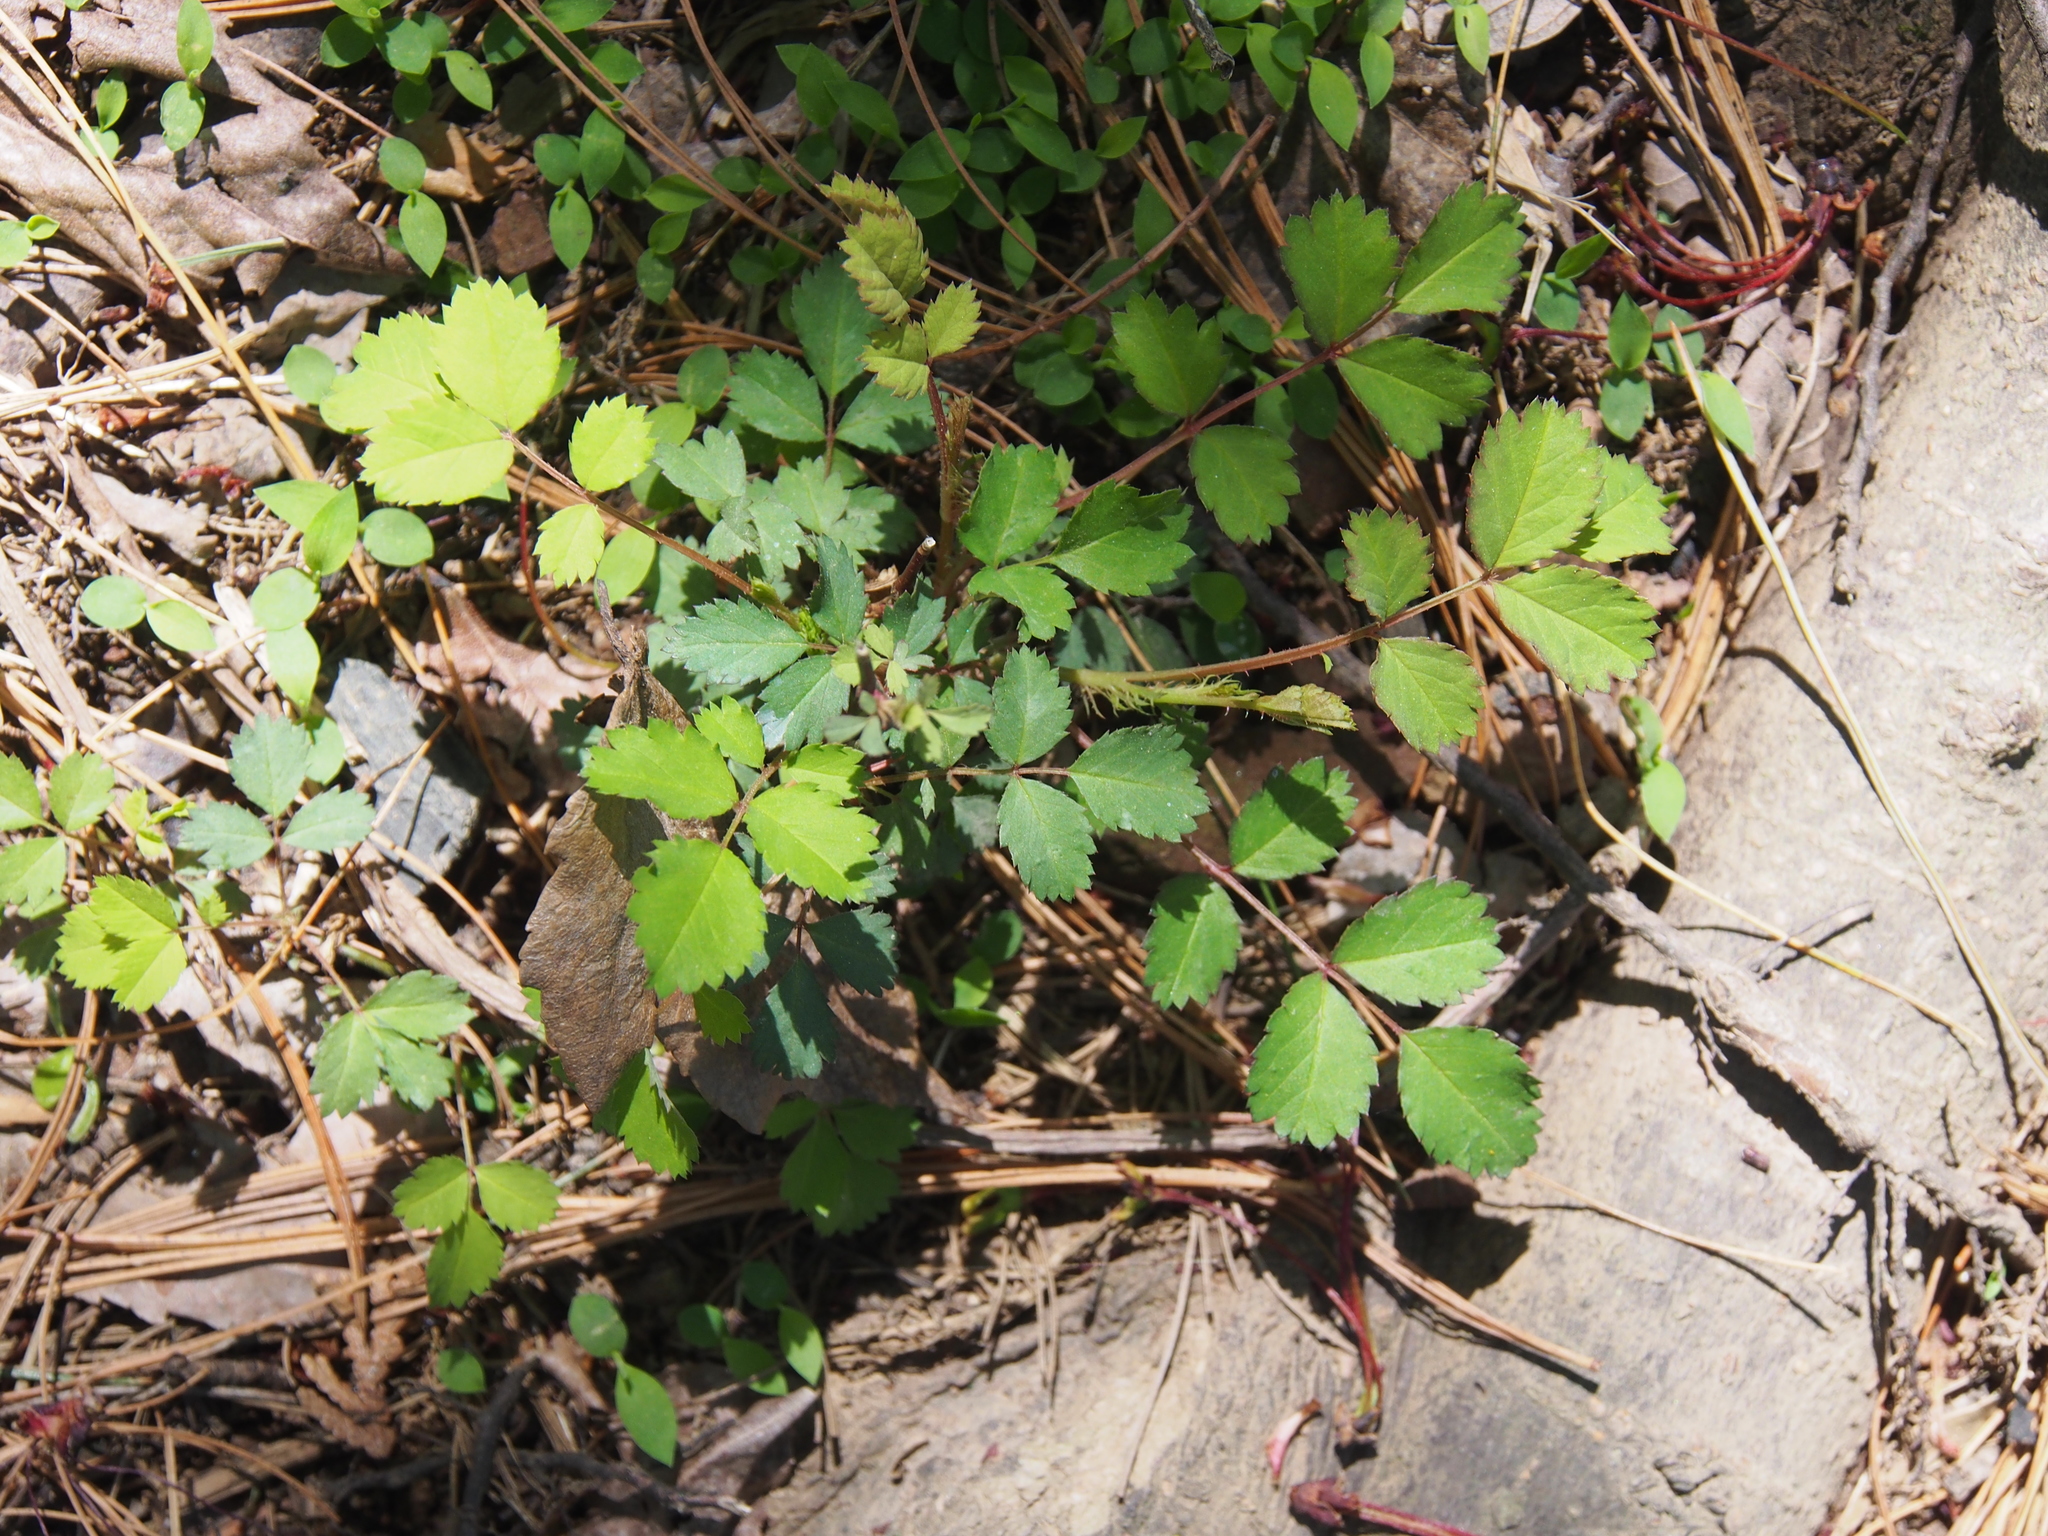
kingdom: Plantae
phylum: Tracheophyta
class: Magnoliopsida
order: Rosales
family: Rosaceae
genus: Rosa
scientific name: Rosa multiflora
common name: Multiflora rose
